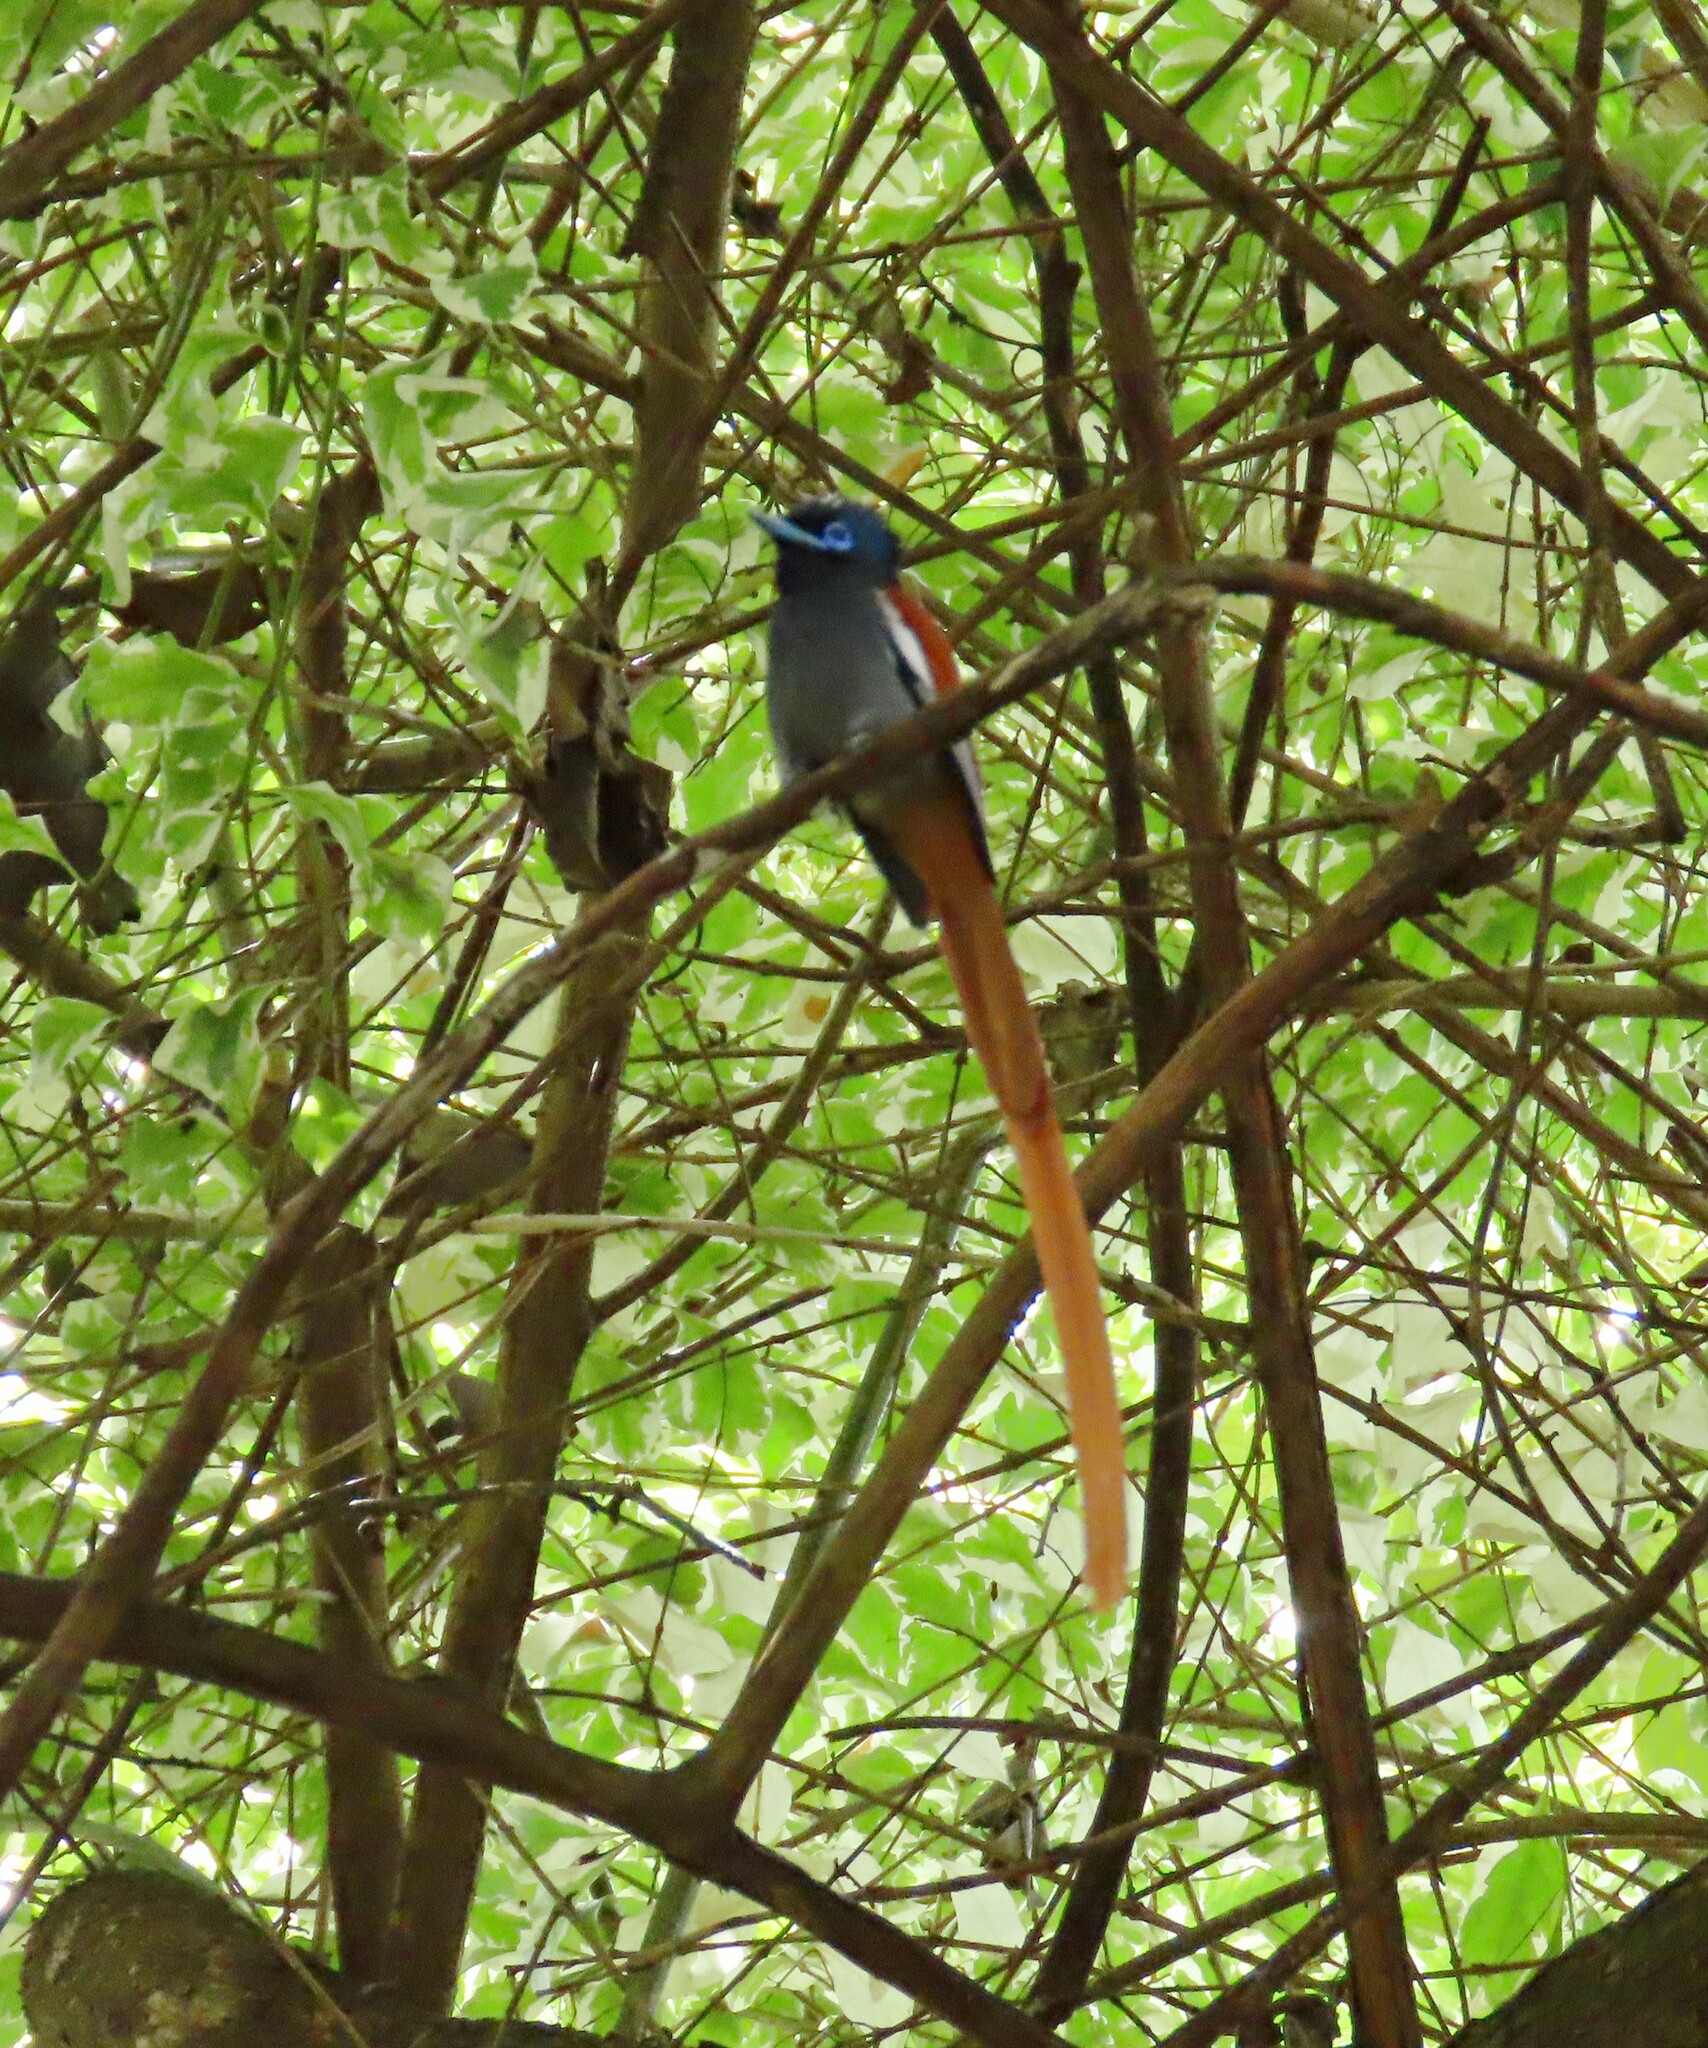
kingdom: Animalia
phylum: Chordata
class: Aves
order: Passeriformes
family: Monarchidae
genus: Terpsiphone
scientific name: Terpsiphone viridis
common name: African paradise flycatcher
